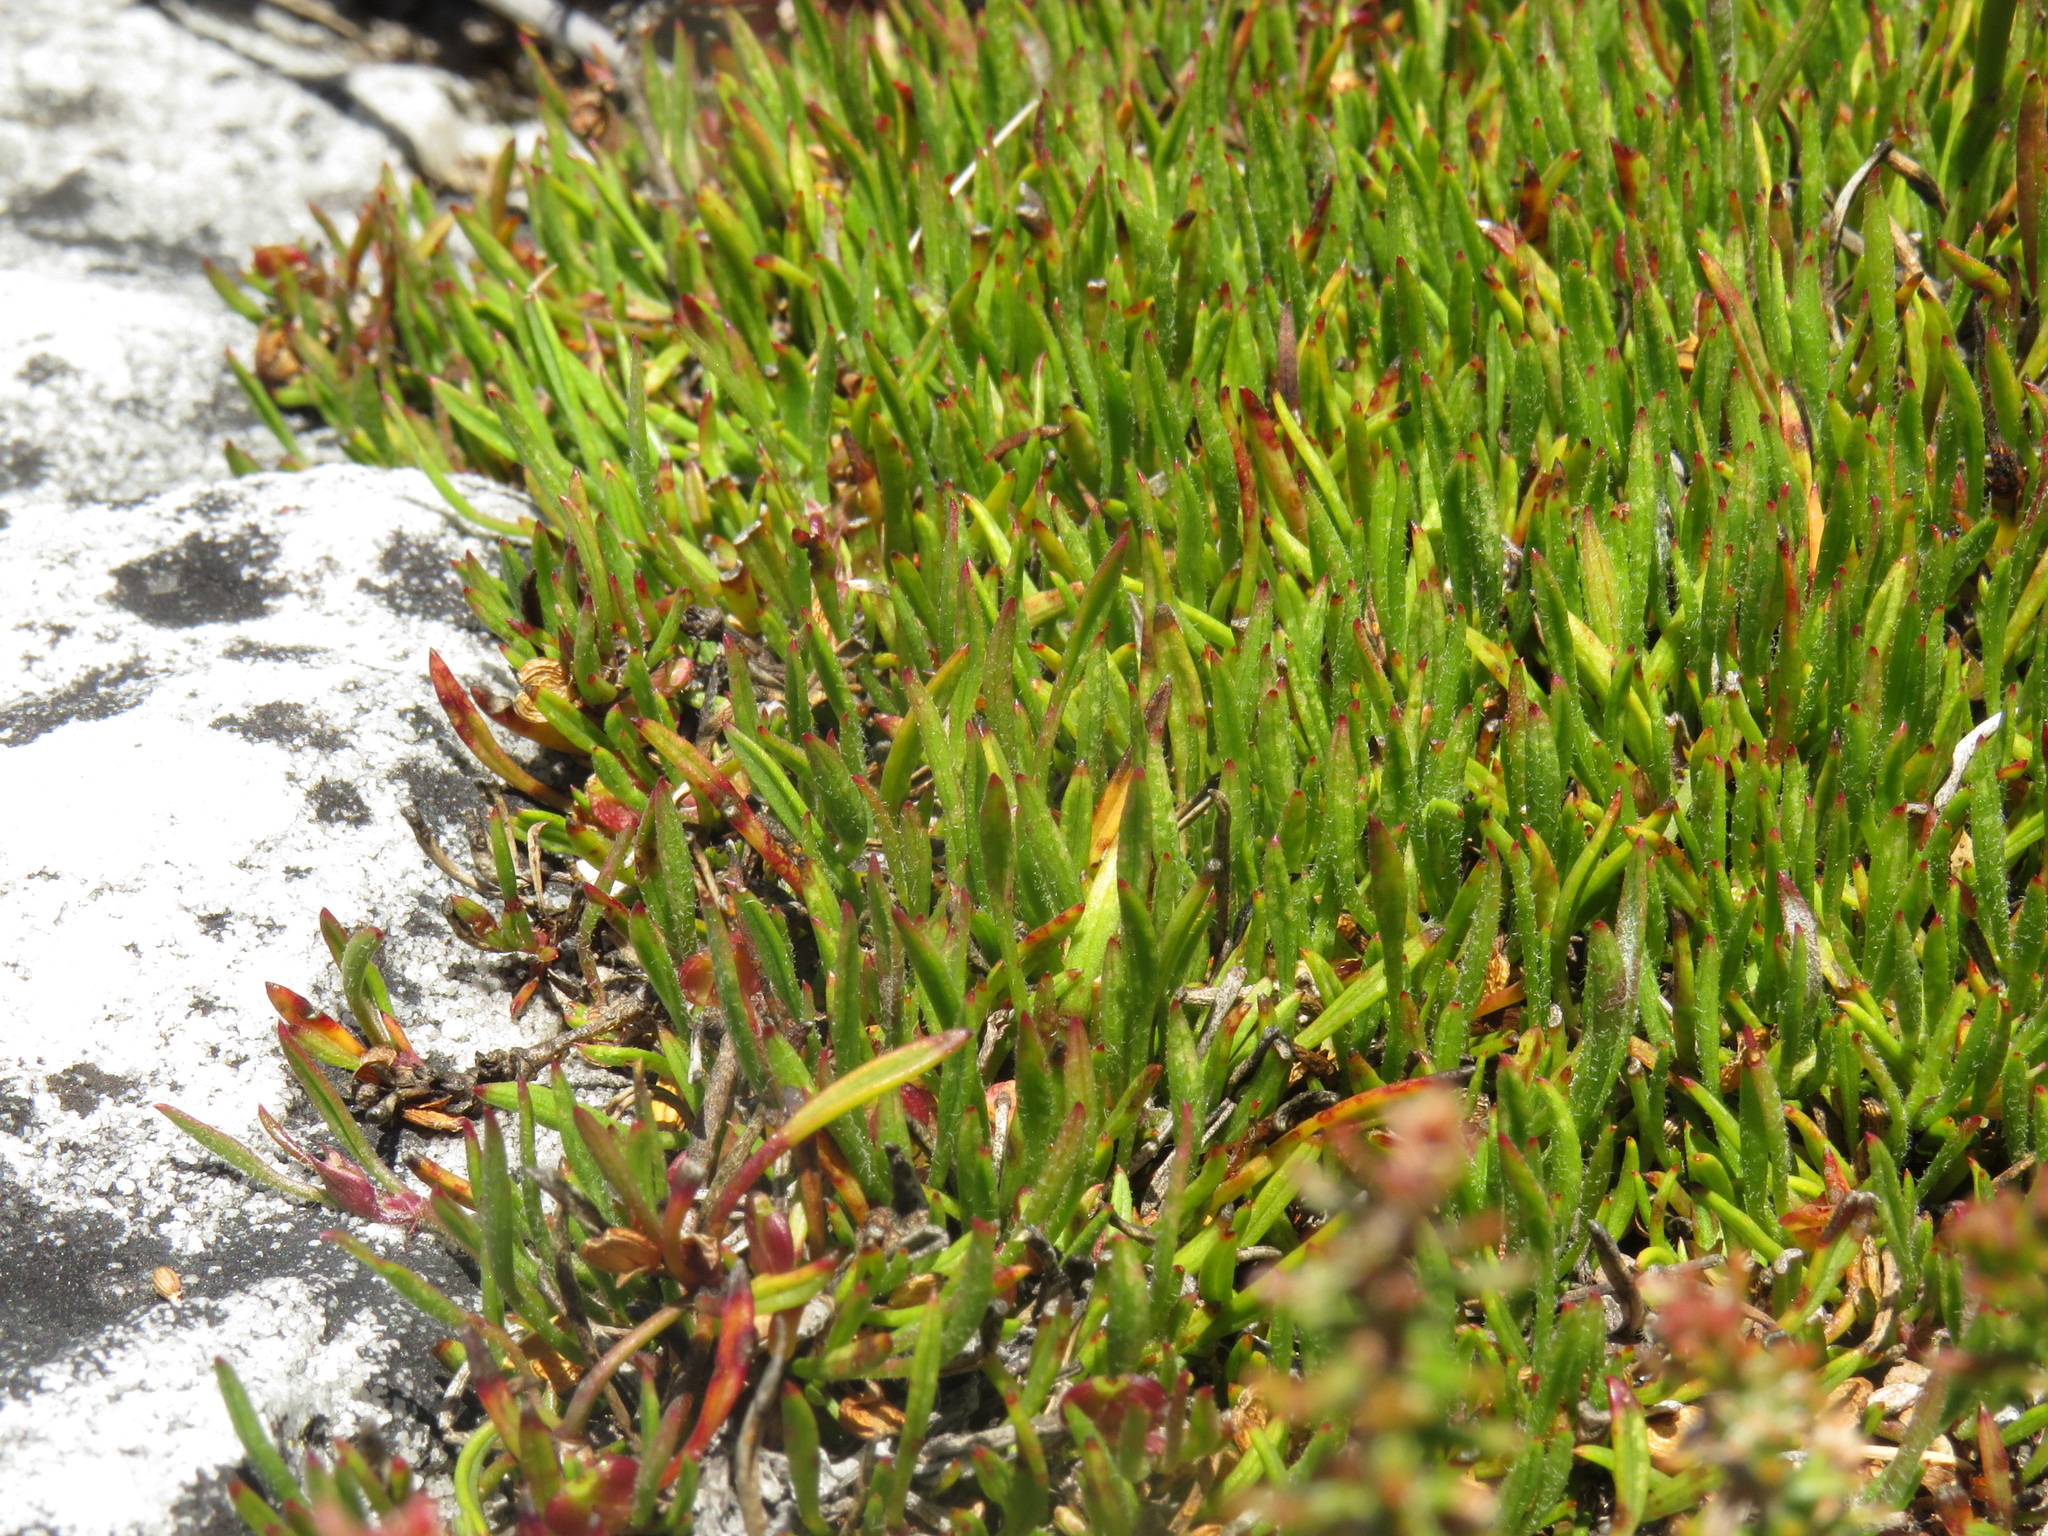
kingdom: Plantae
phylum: Tracheophyta
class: Magnoliopsida
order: Apiales
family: Apiaceae
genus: Centella
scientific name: Centella caespitosa
